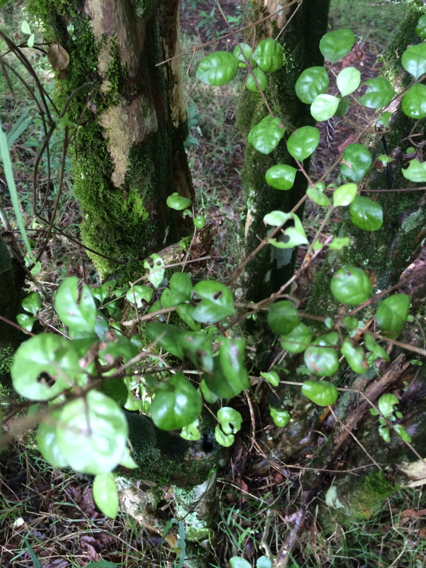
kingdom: Plantae
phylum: Tracheophyta
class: Magnoliopsida
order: Myrtales
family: Myrtaceae
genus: Lophomyrtus
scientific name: Lophomyrtus bullata
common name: Rama rama
